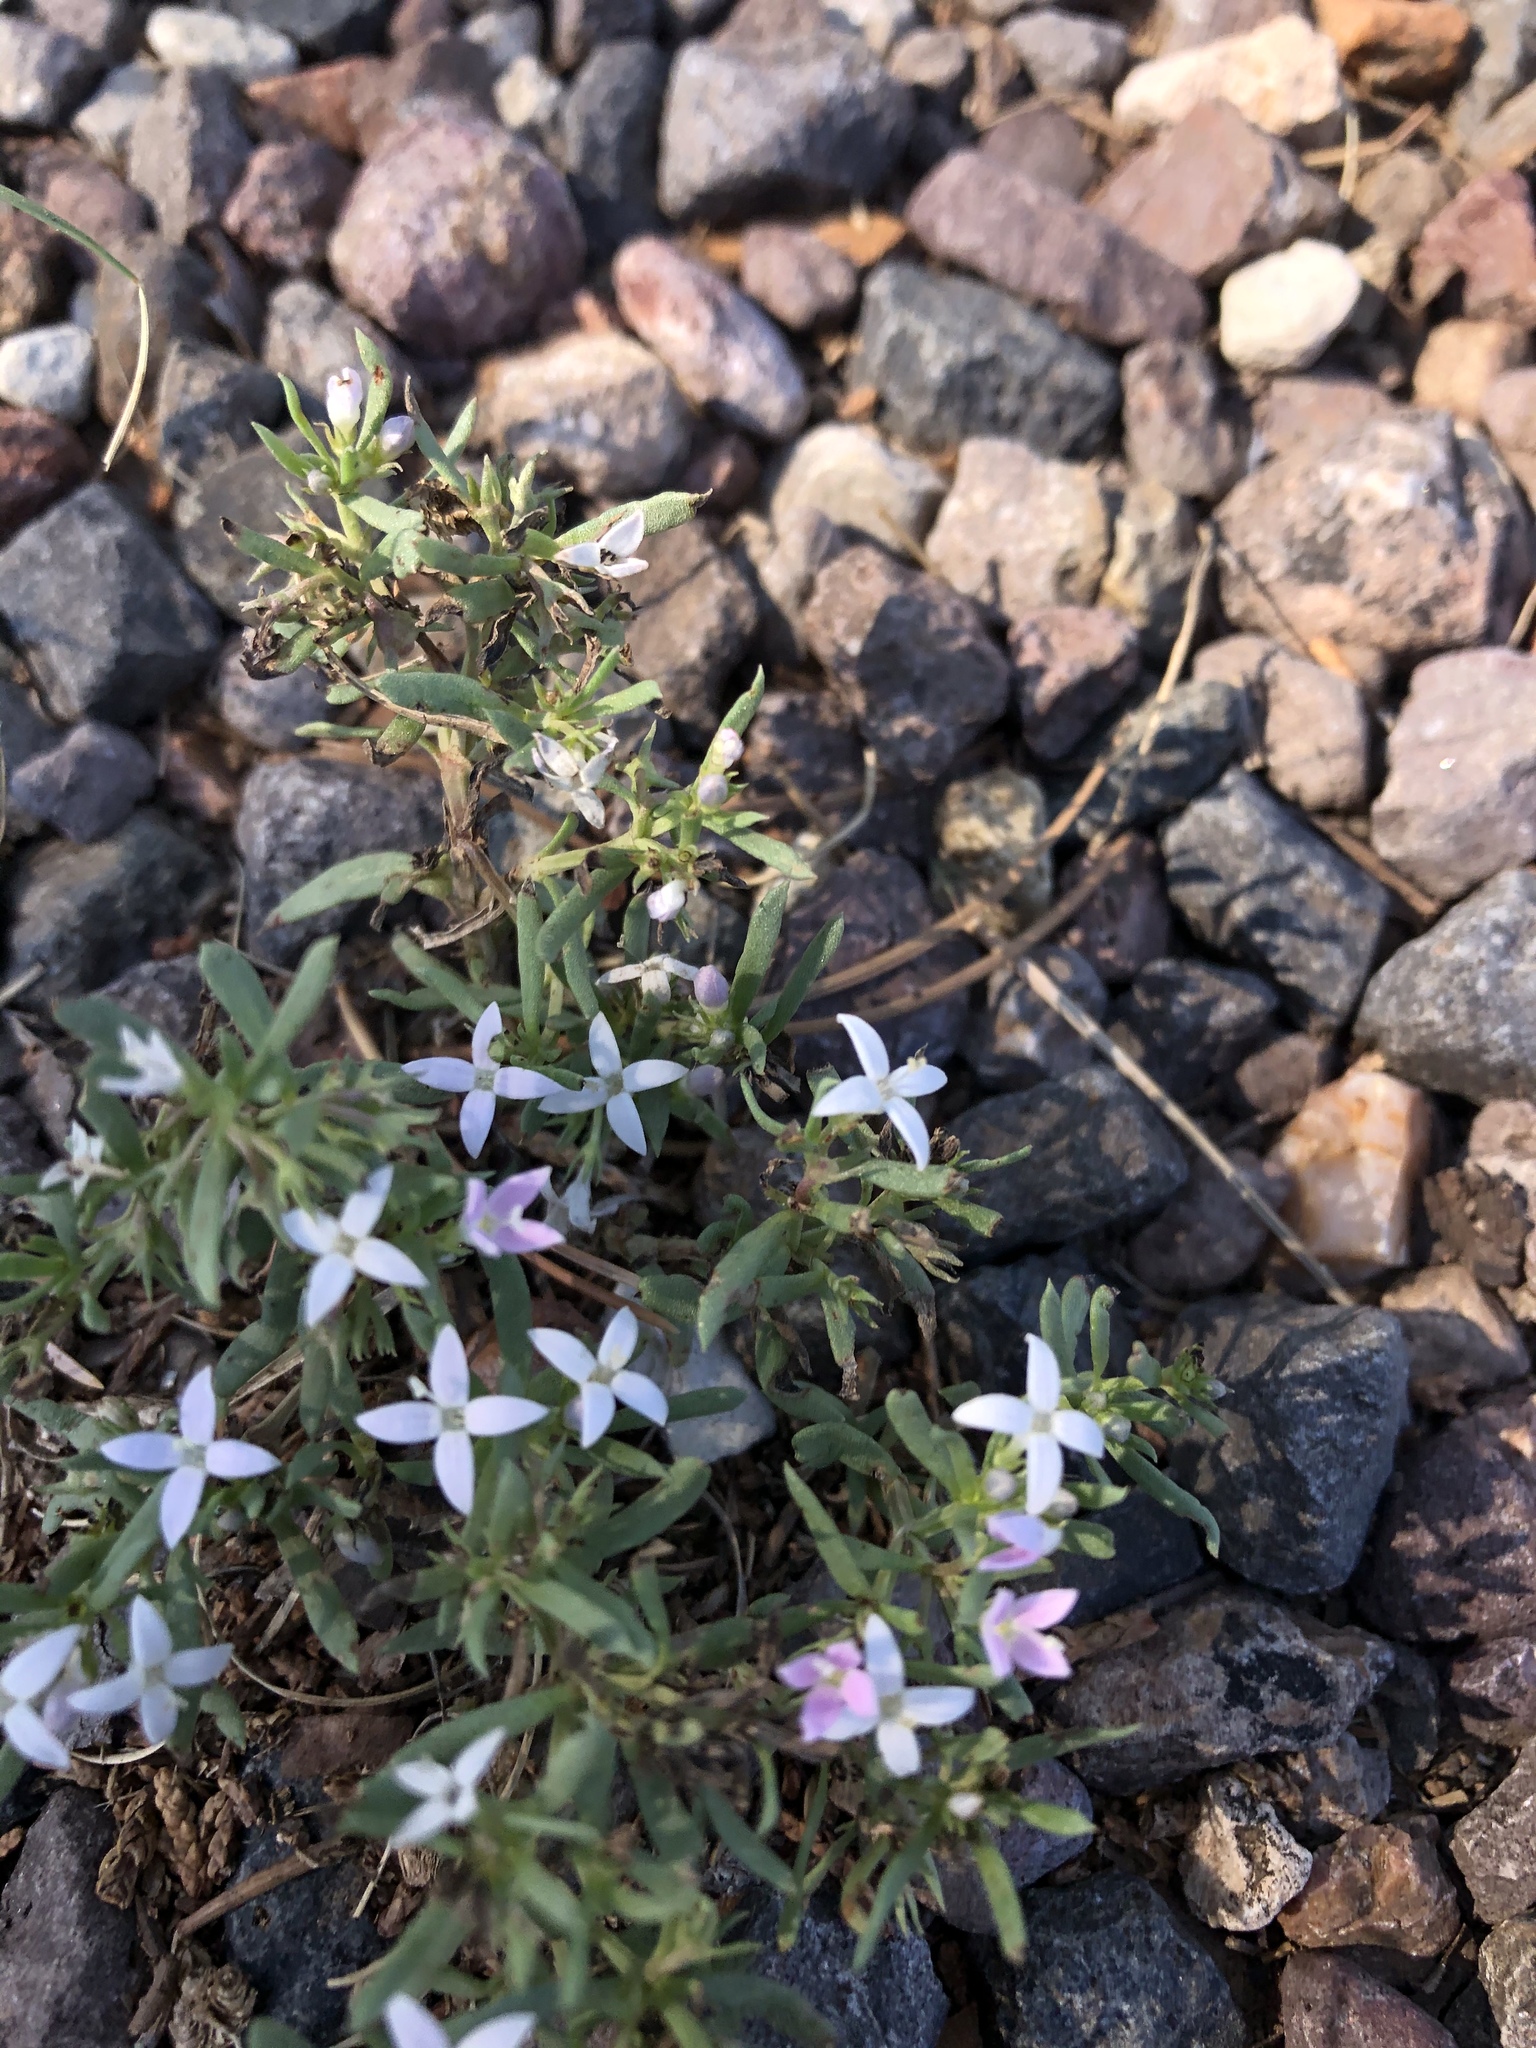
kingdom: Plantae
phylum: Tracheophyta
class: Magnoliopsida
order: Gentianales
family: Rubiaceae
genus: Houstonia
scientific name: Houstonia wrightii
